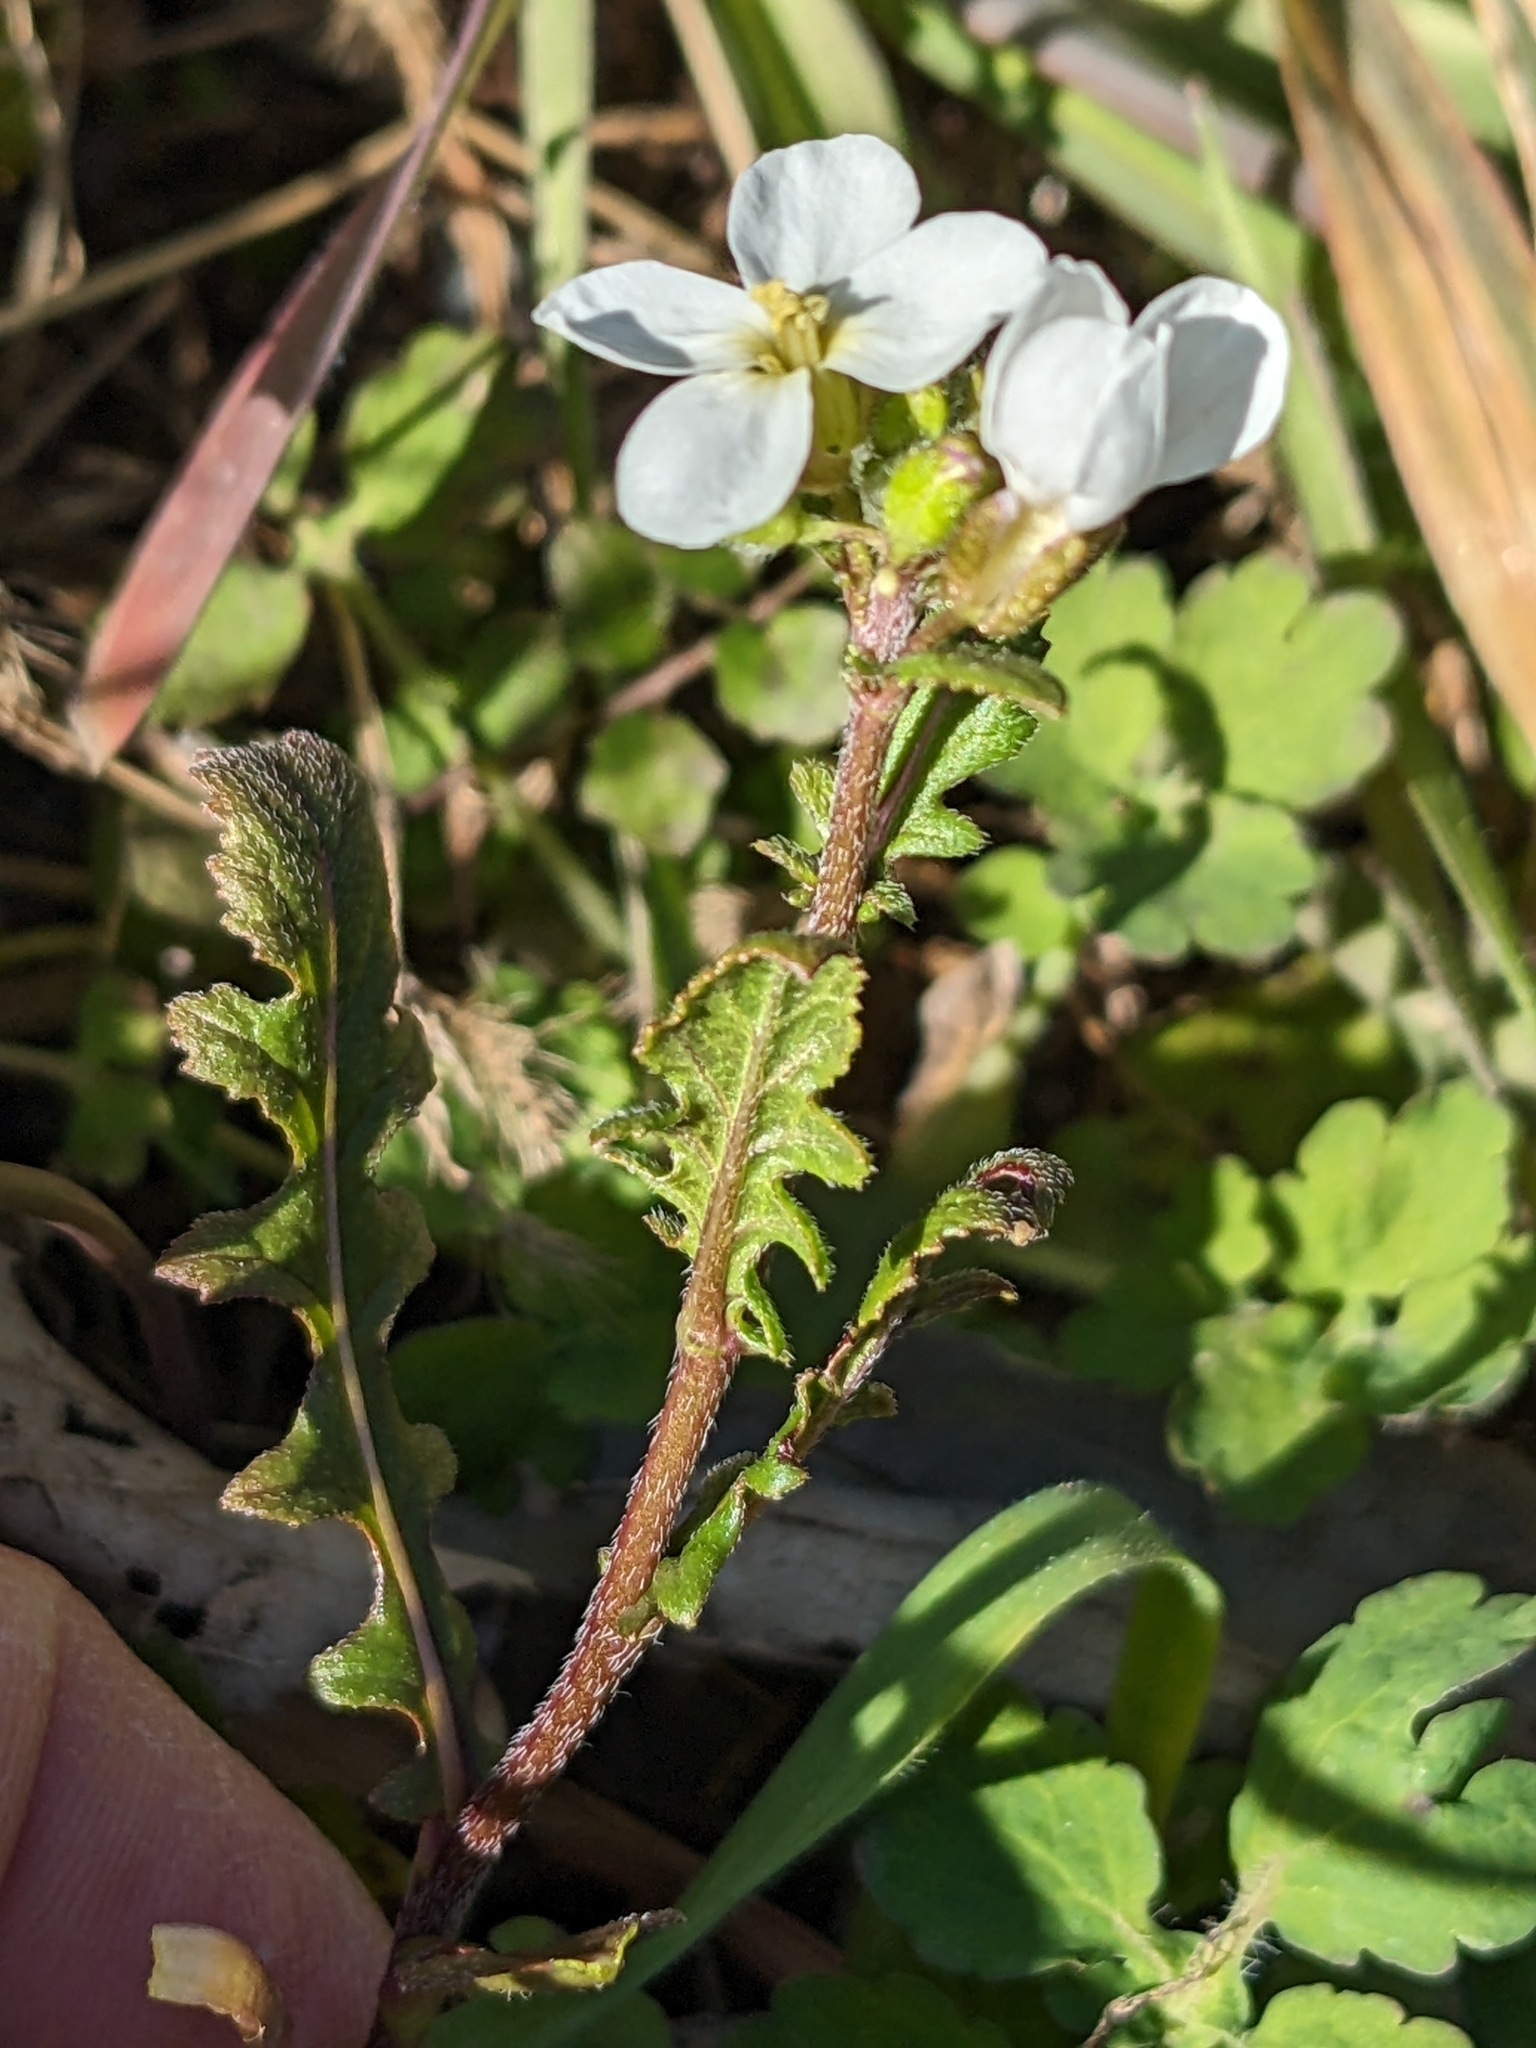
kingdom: Plantae
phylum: Tracheophyta
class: Magnoliopsida
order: Brassicales
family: Brassicaceae
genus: Diplotaxis
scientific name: Diplotaxis erucoides
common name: White rocket
